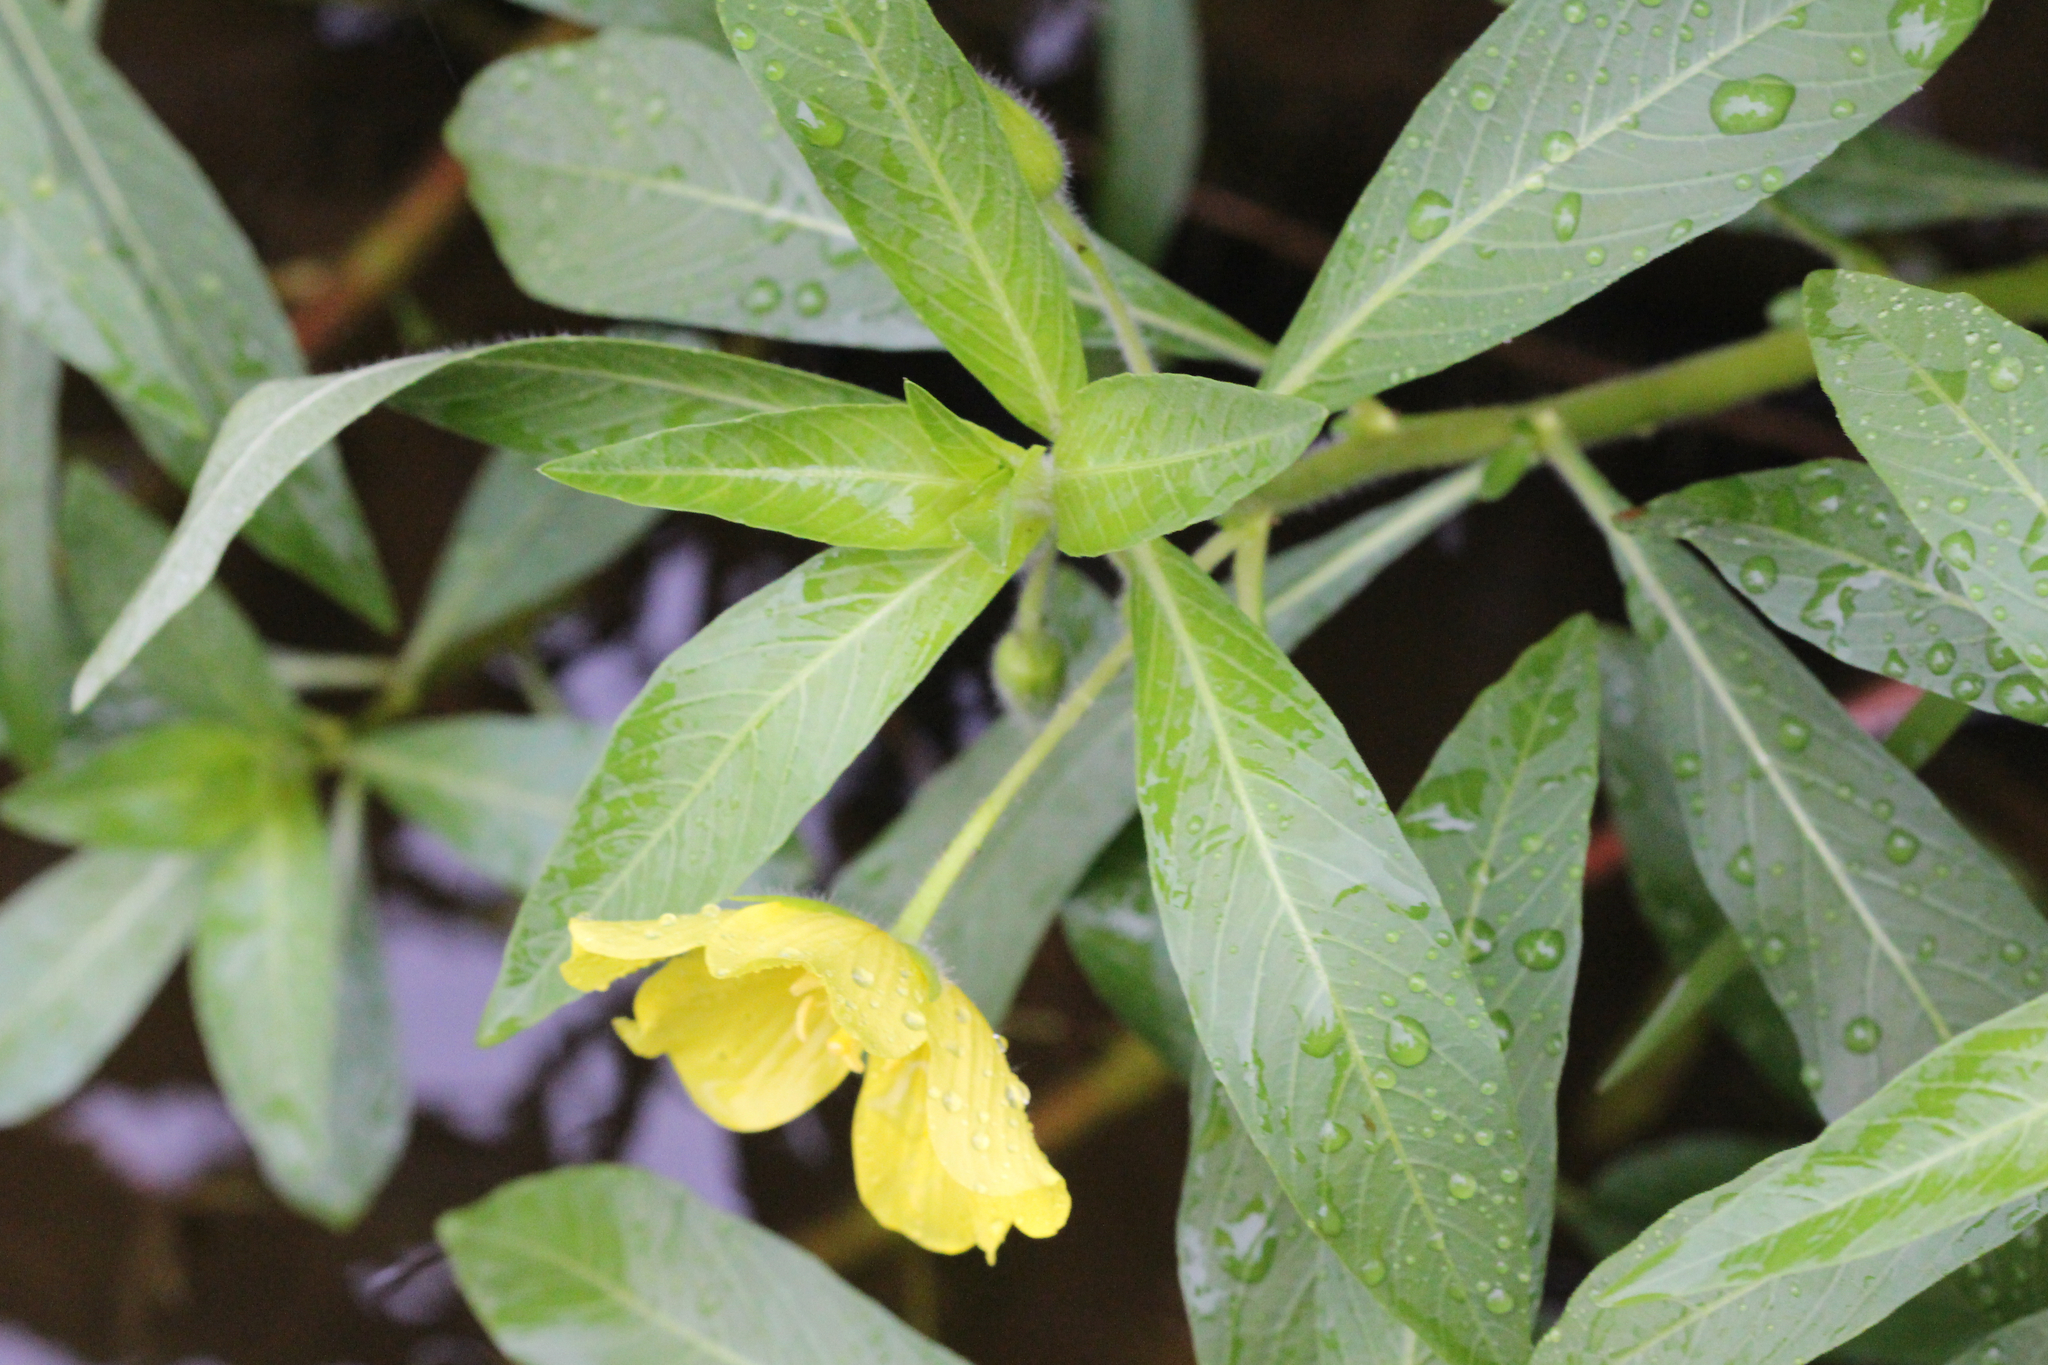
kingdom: Plantae
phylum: Tracheophyta
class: Magnoliopsida
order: Myrtales
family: Onagraceae
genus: Ludwigia
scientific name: Ludwigia hexapetala
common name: Water-primrose
